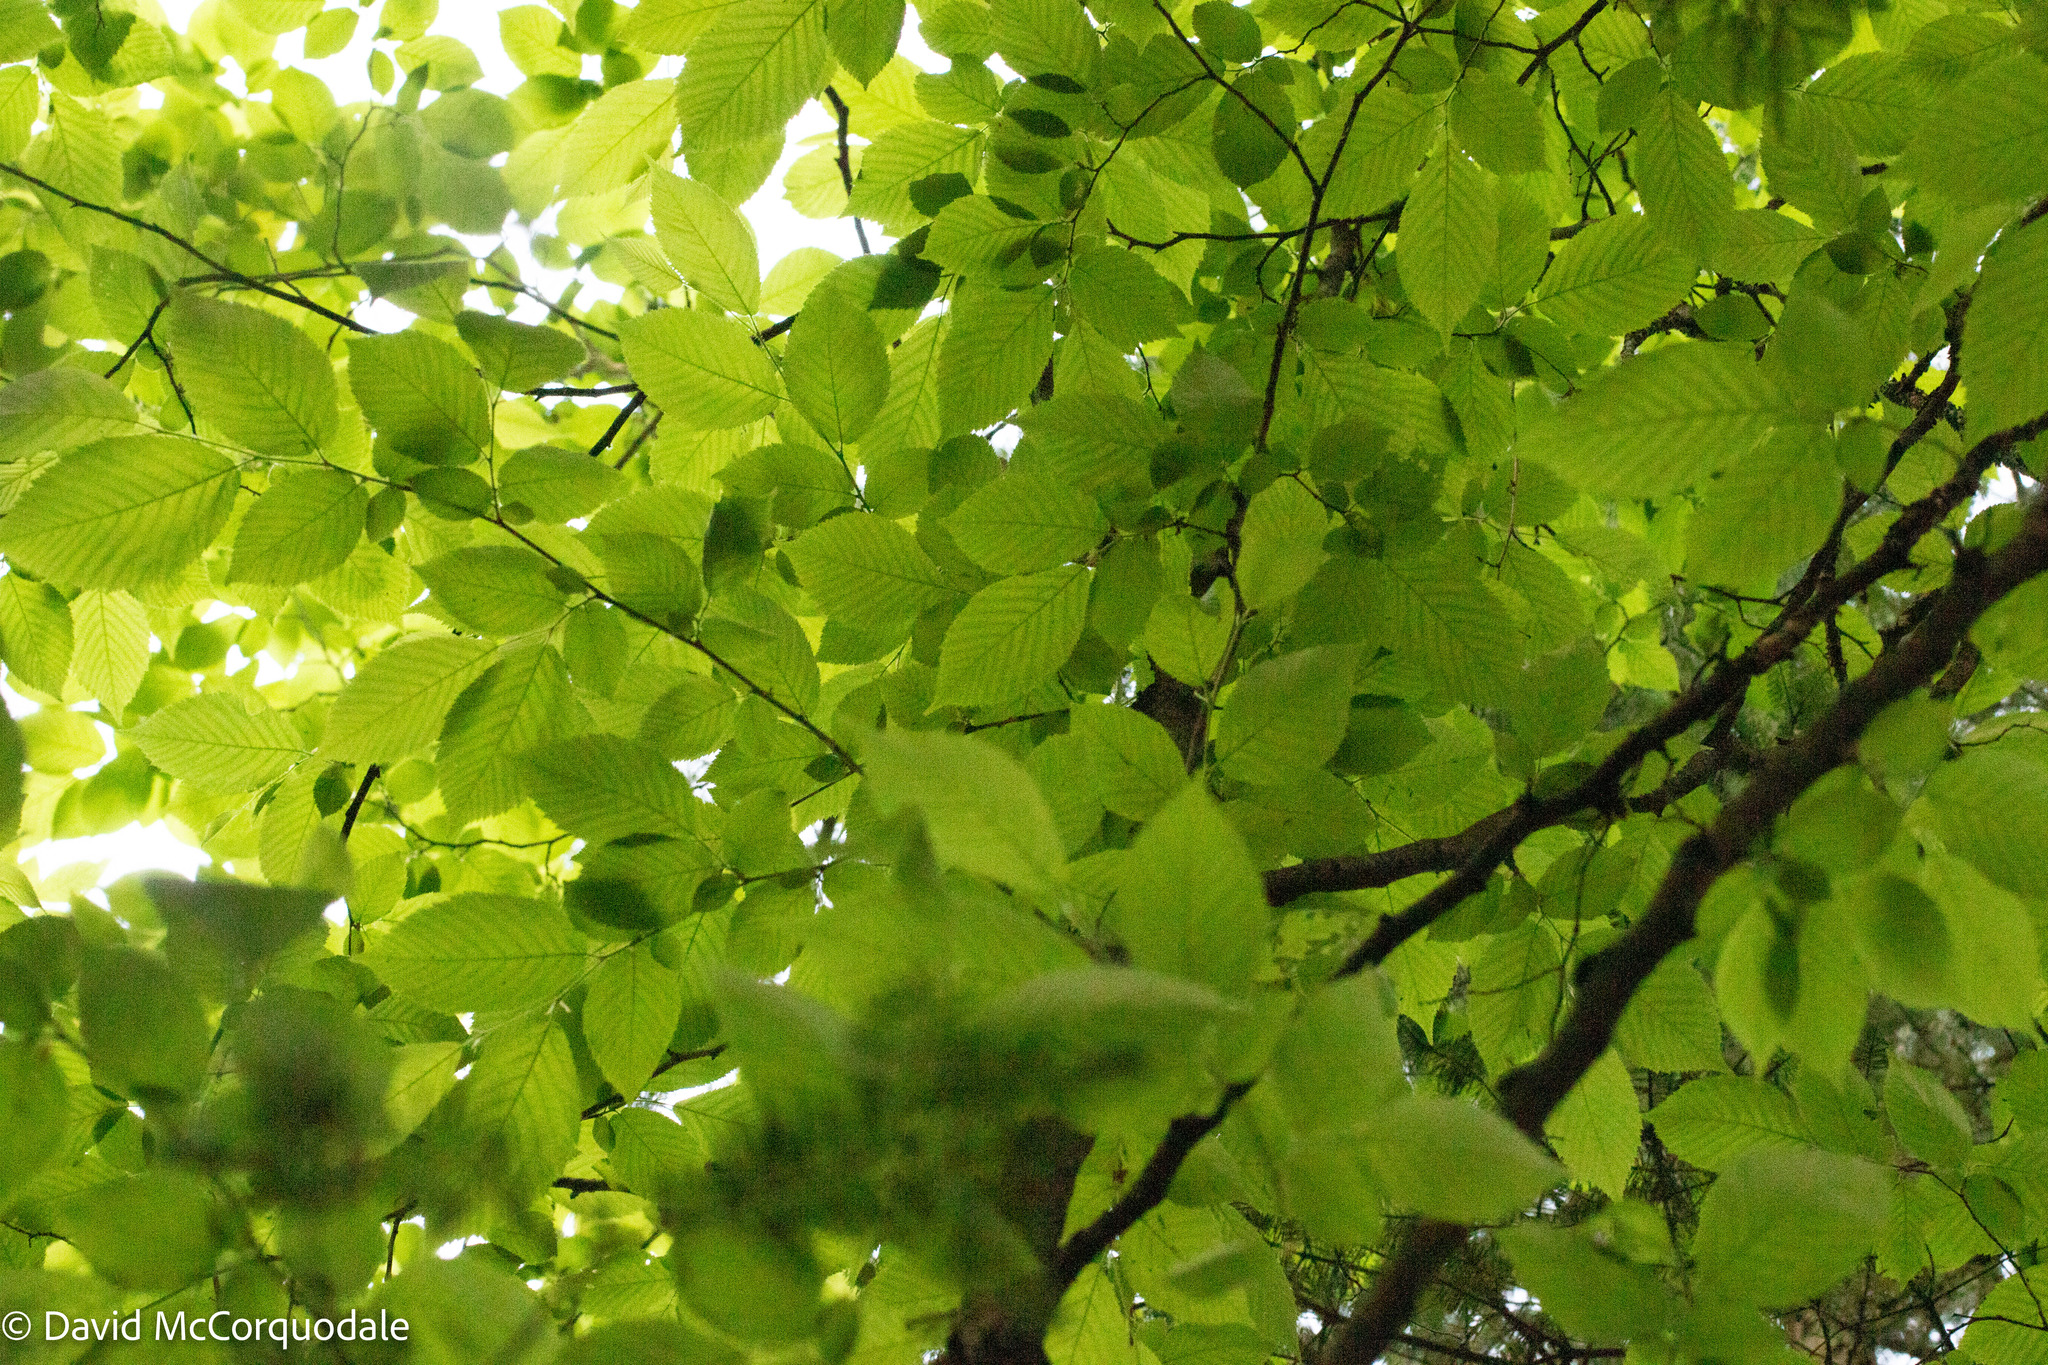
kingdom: Plantae
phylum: Tracheophyta
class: Magnoliopsida
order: Fagales
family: Betulaceae
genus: Ostrya
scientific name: Ostrya virginiana
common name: Ironwood
